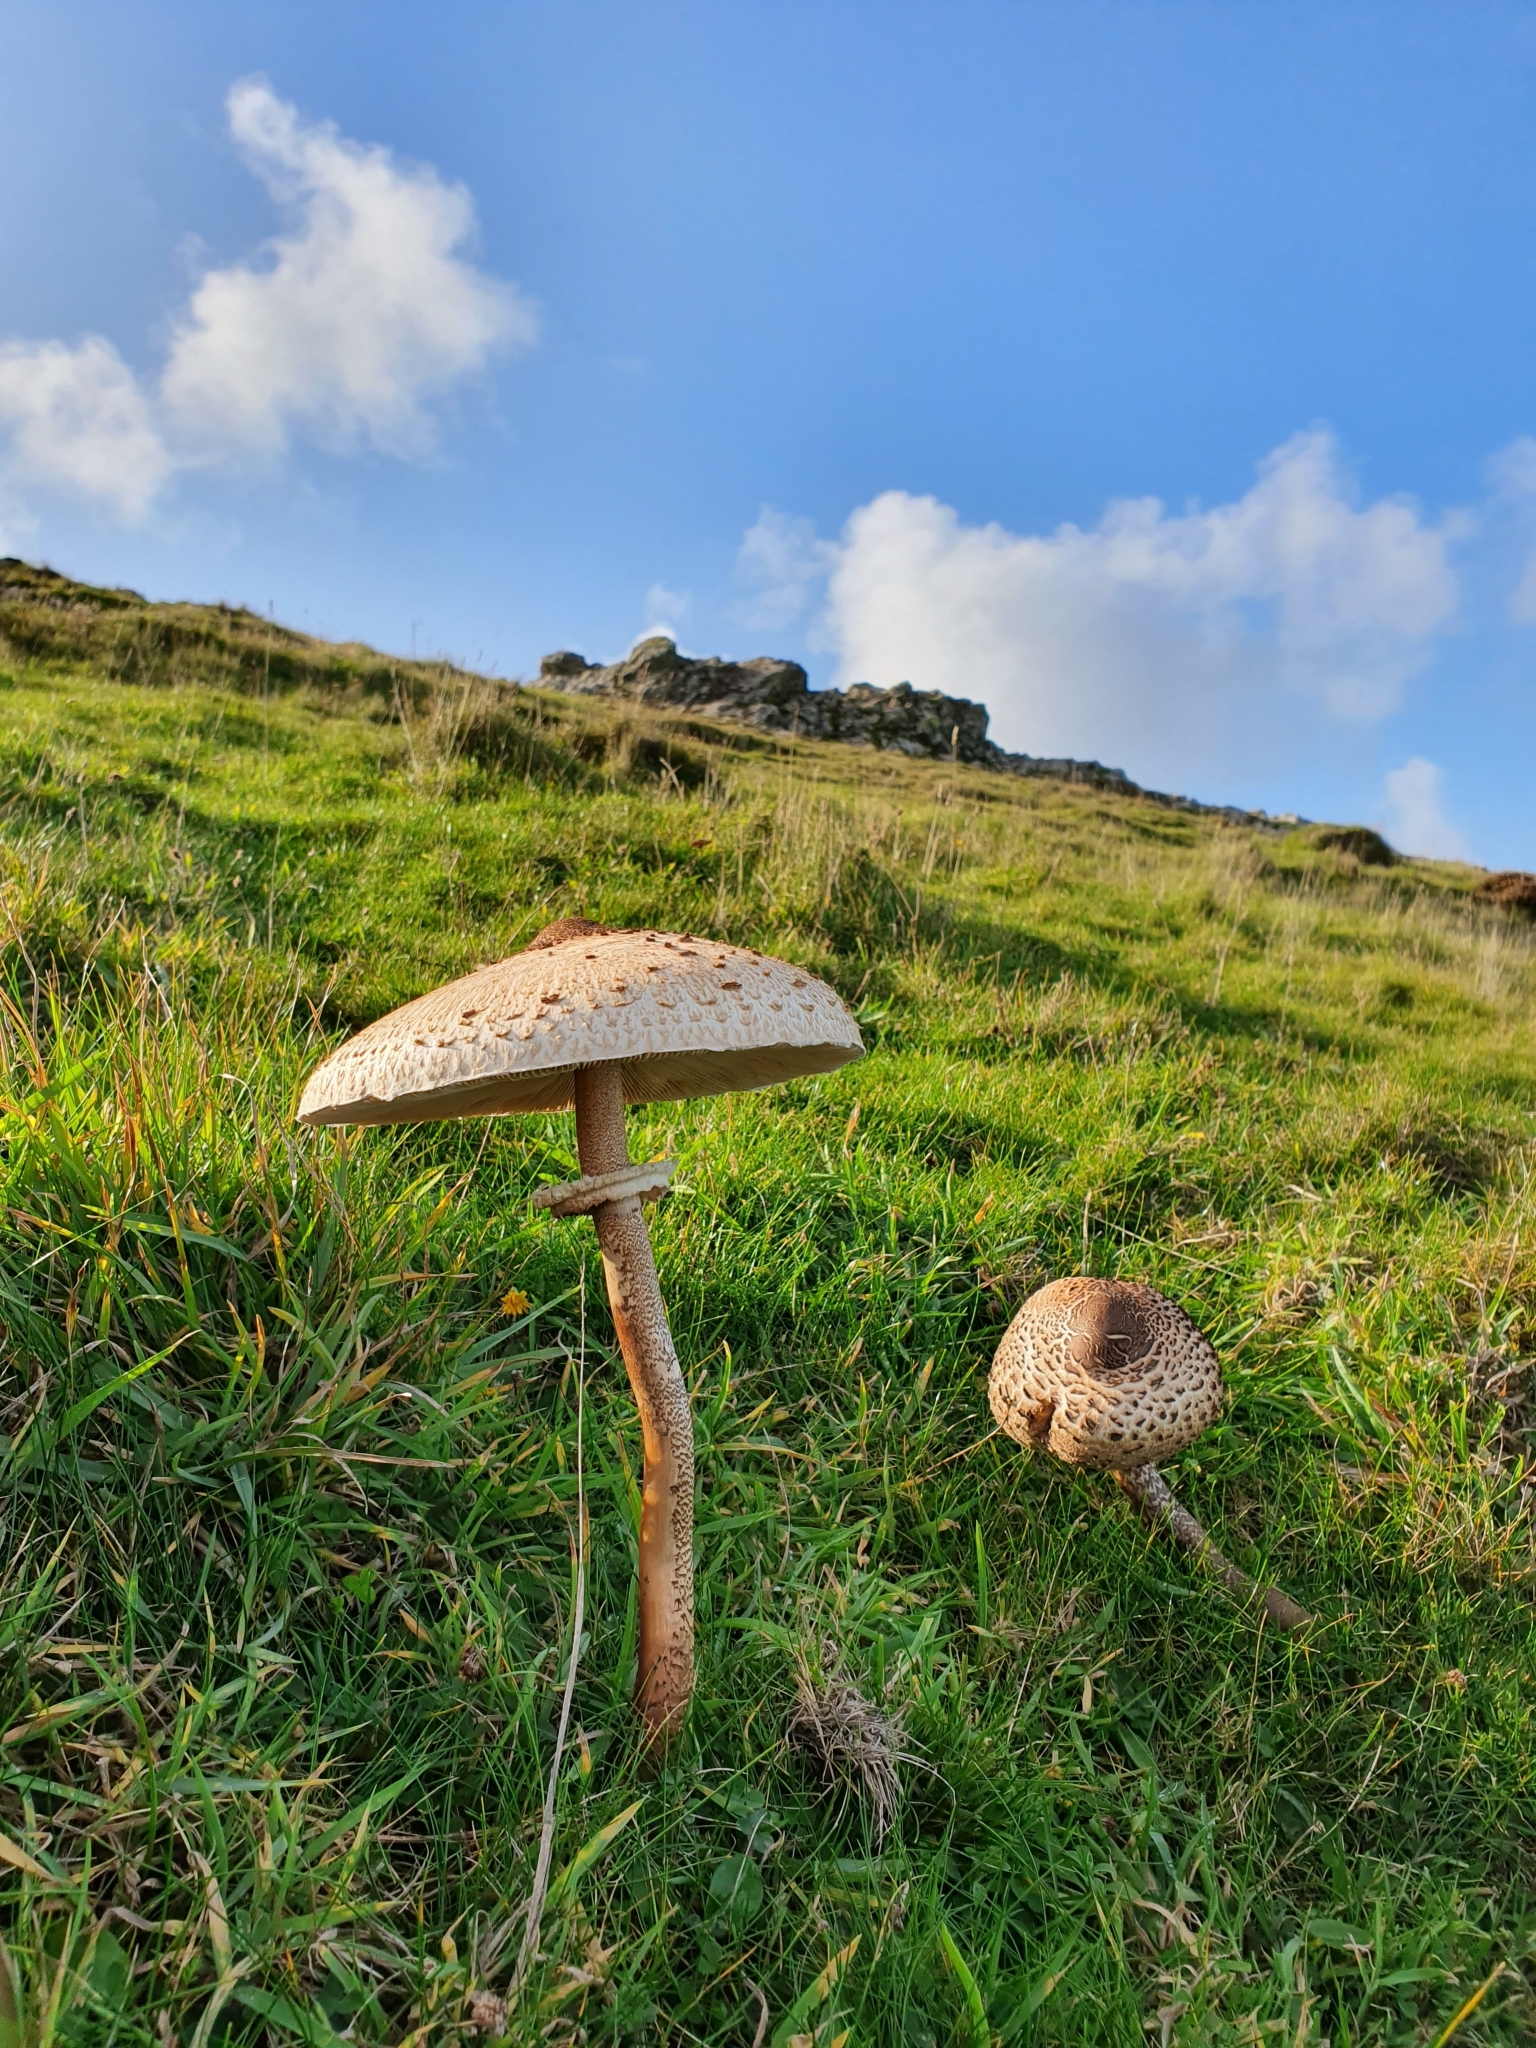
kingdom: Fungi
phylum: Basidiomycota
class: Agaricomycetes
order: Agaricales
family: Agaricaceae
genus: Macrolepiota
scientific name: Macrolepiota procera
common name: Parasol
